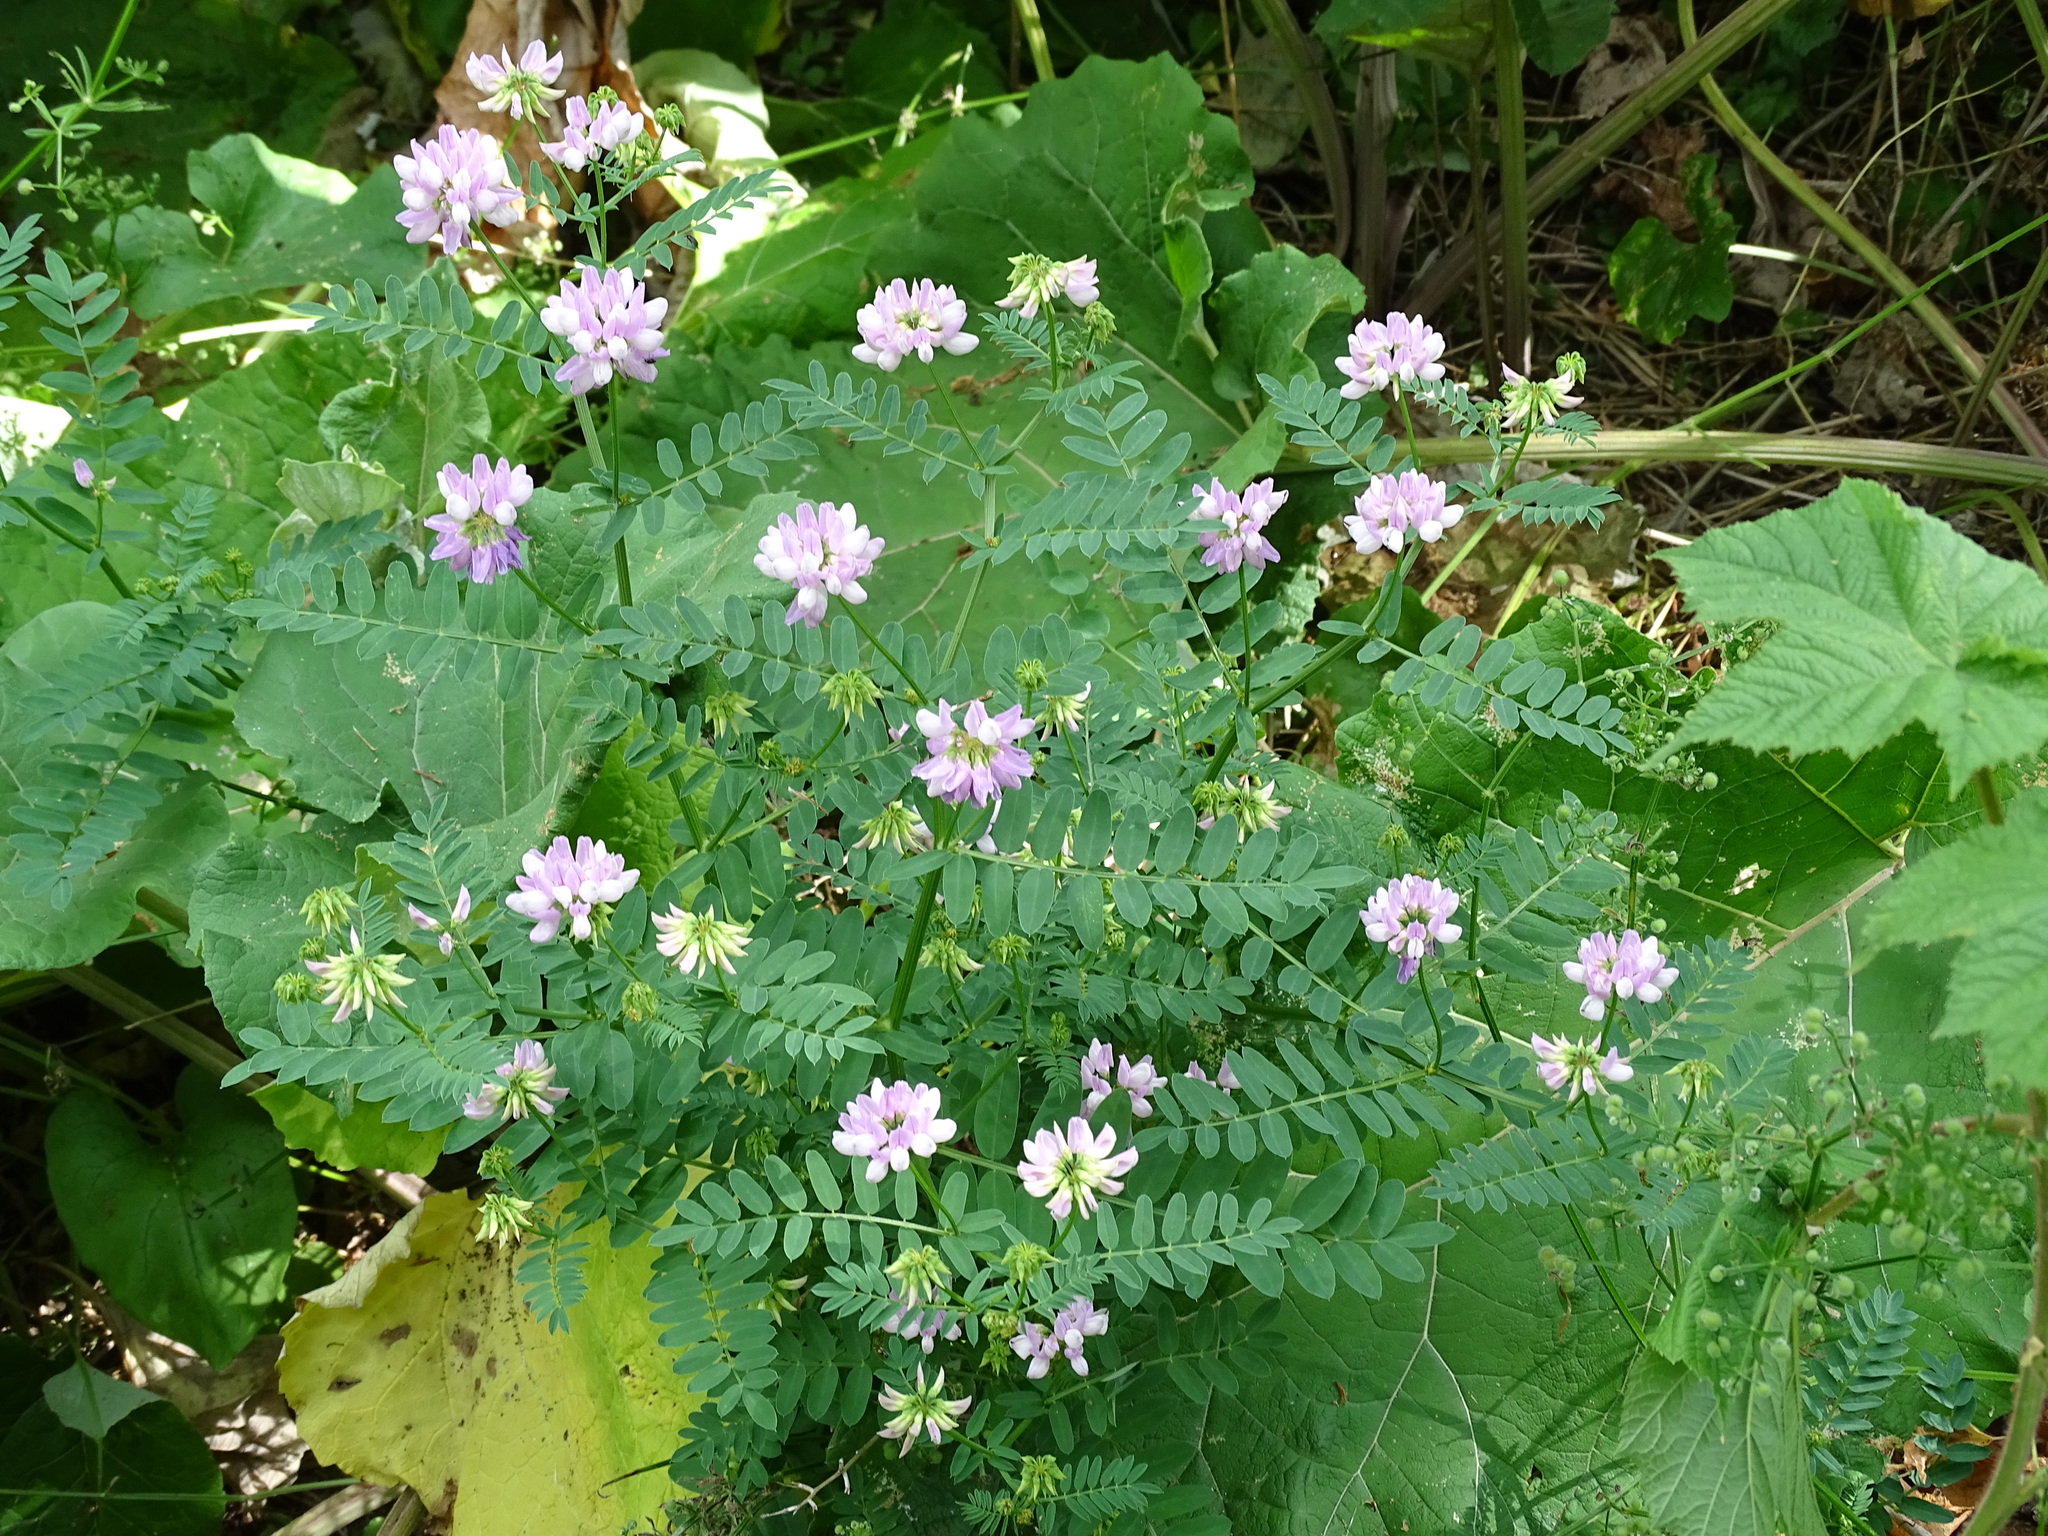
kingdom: Plantae
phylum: Tracheophyta
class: Magnoliopsida
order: Fabales
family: Fabaceae
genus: Coronilla
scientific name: Coronilla varia
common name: Crownvetch
